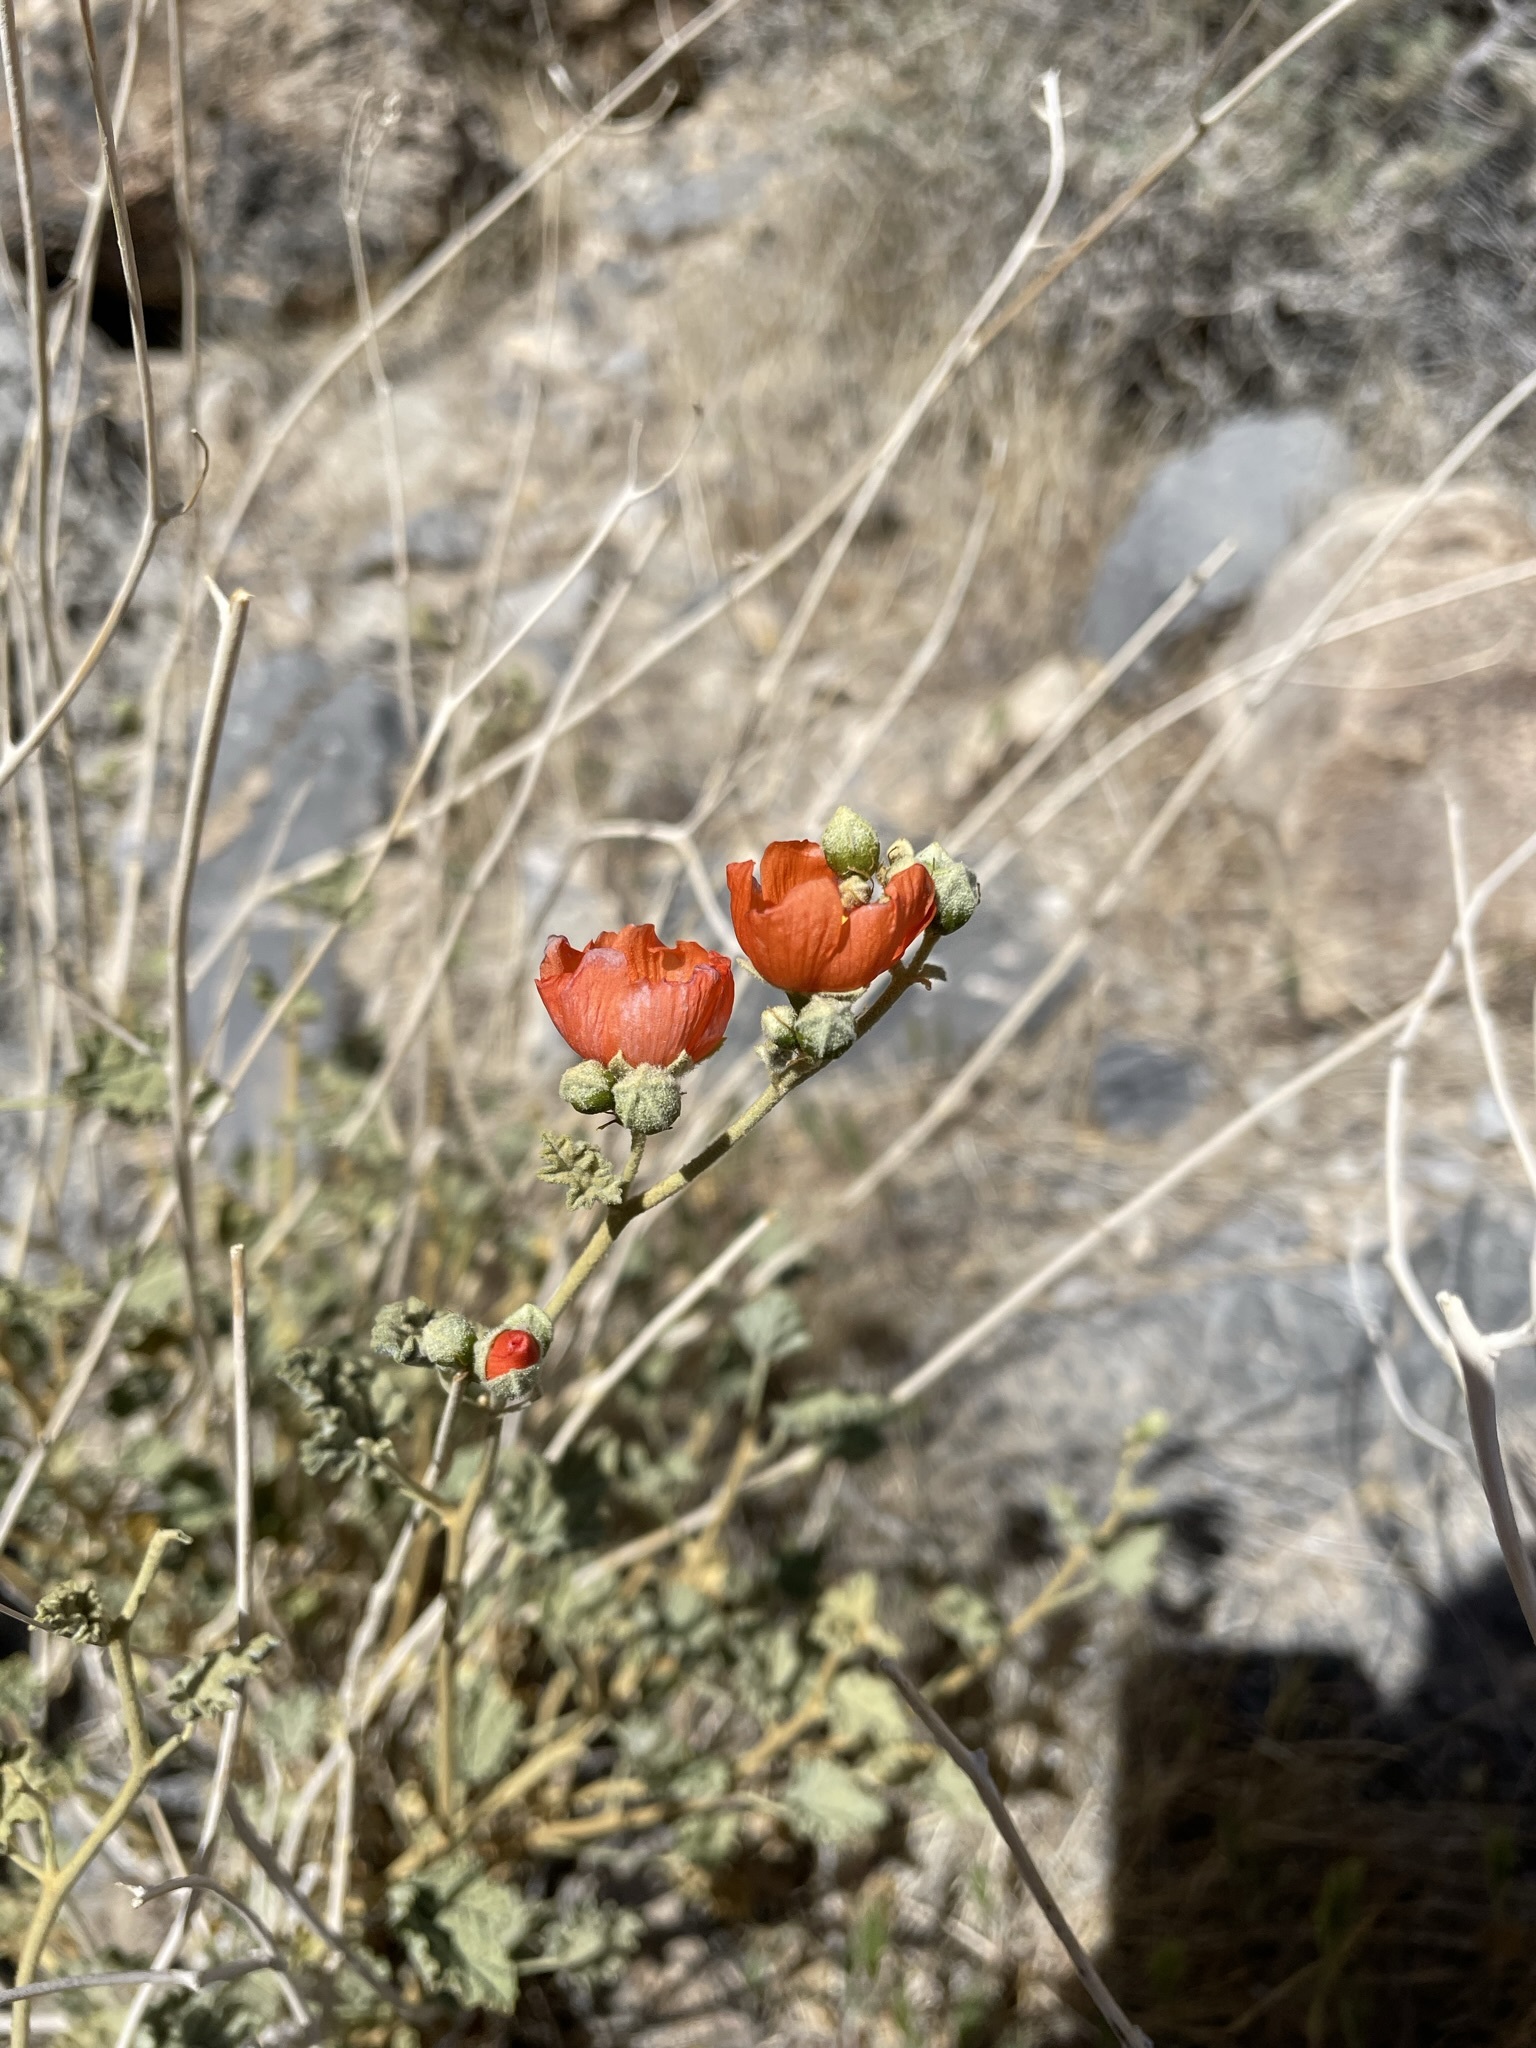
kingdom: Plantae
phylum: Tracheophyta
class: Magnoliopsida
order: Malvales
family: Malvaceae
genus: Sphaeralcea
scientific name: Sphaeralcea ambigua
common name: Apricot globe-mallow
